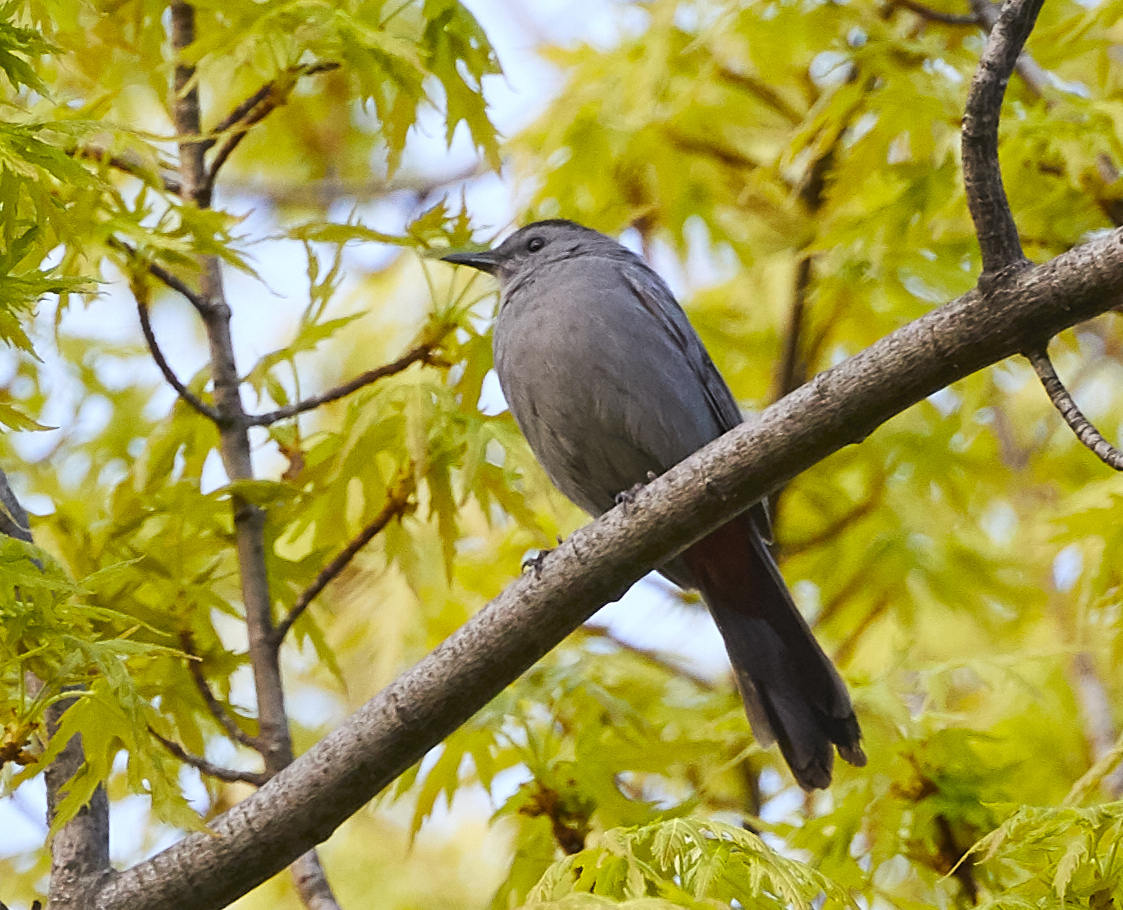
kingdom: Animalia
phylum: Chordata
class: Aves
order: Passeriformes
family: Mimidae
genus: Dumetella
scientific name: Dumetella carolinensis
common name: Gray catbird
